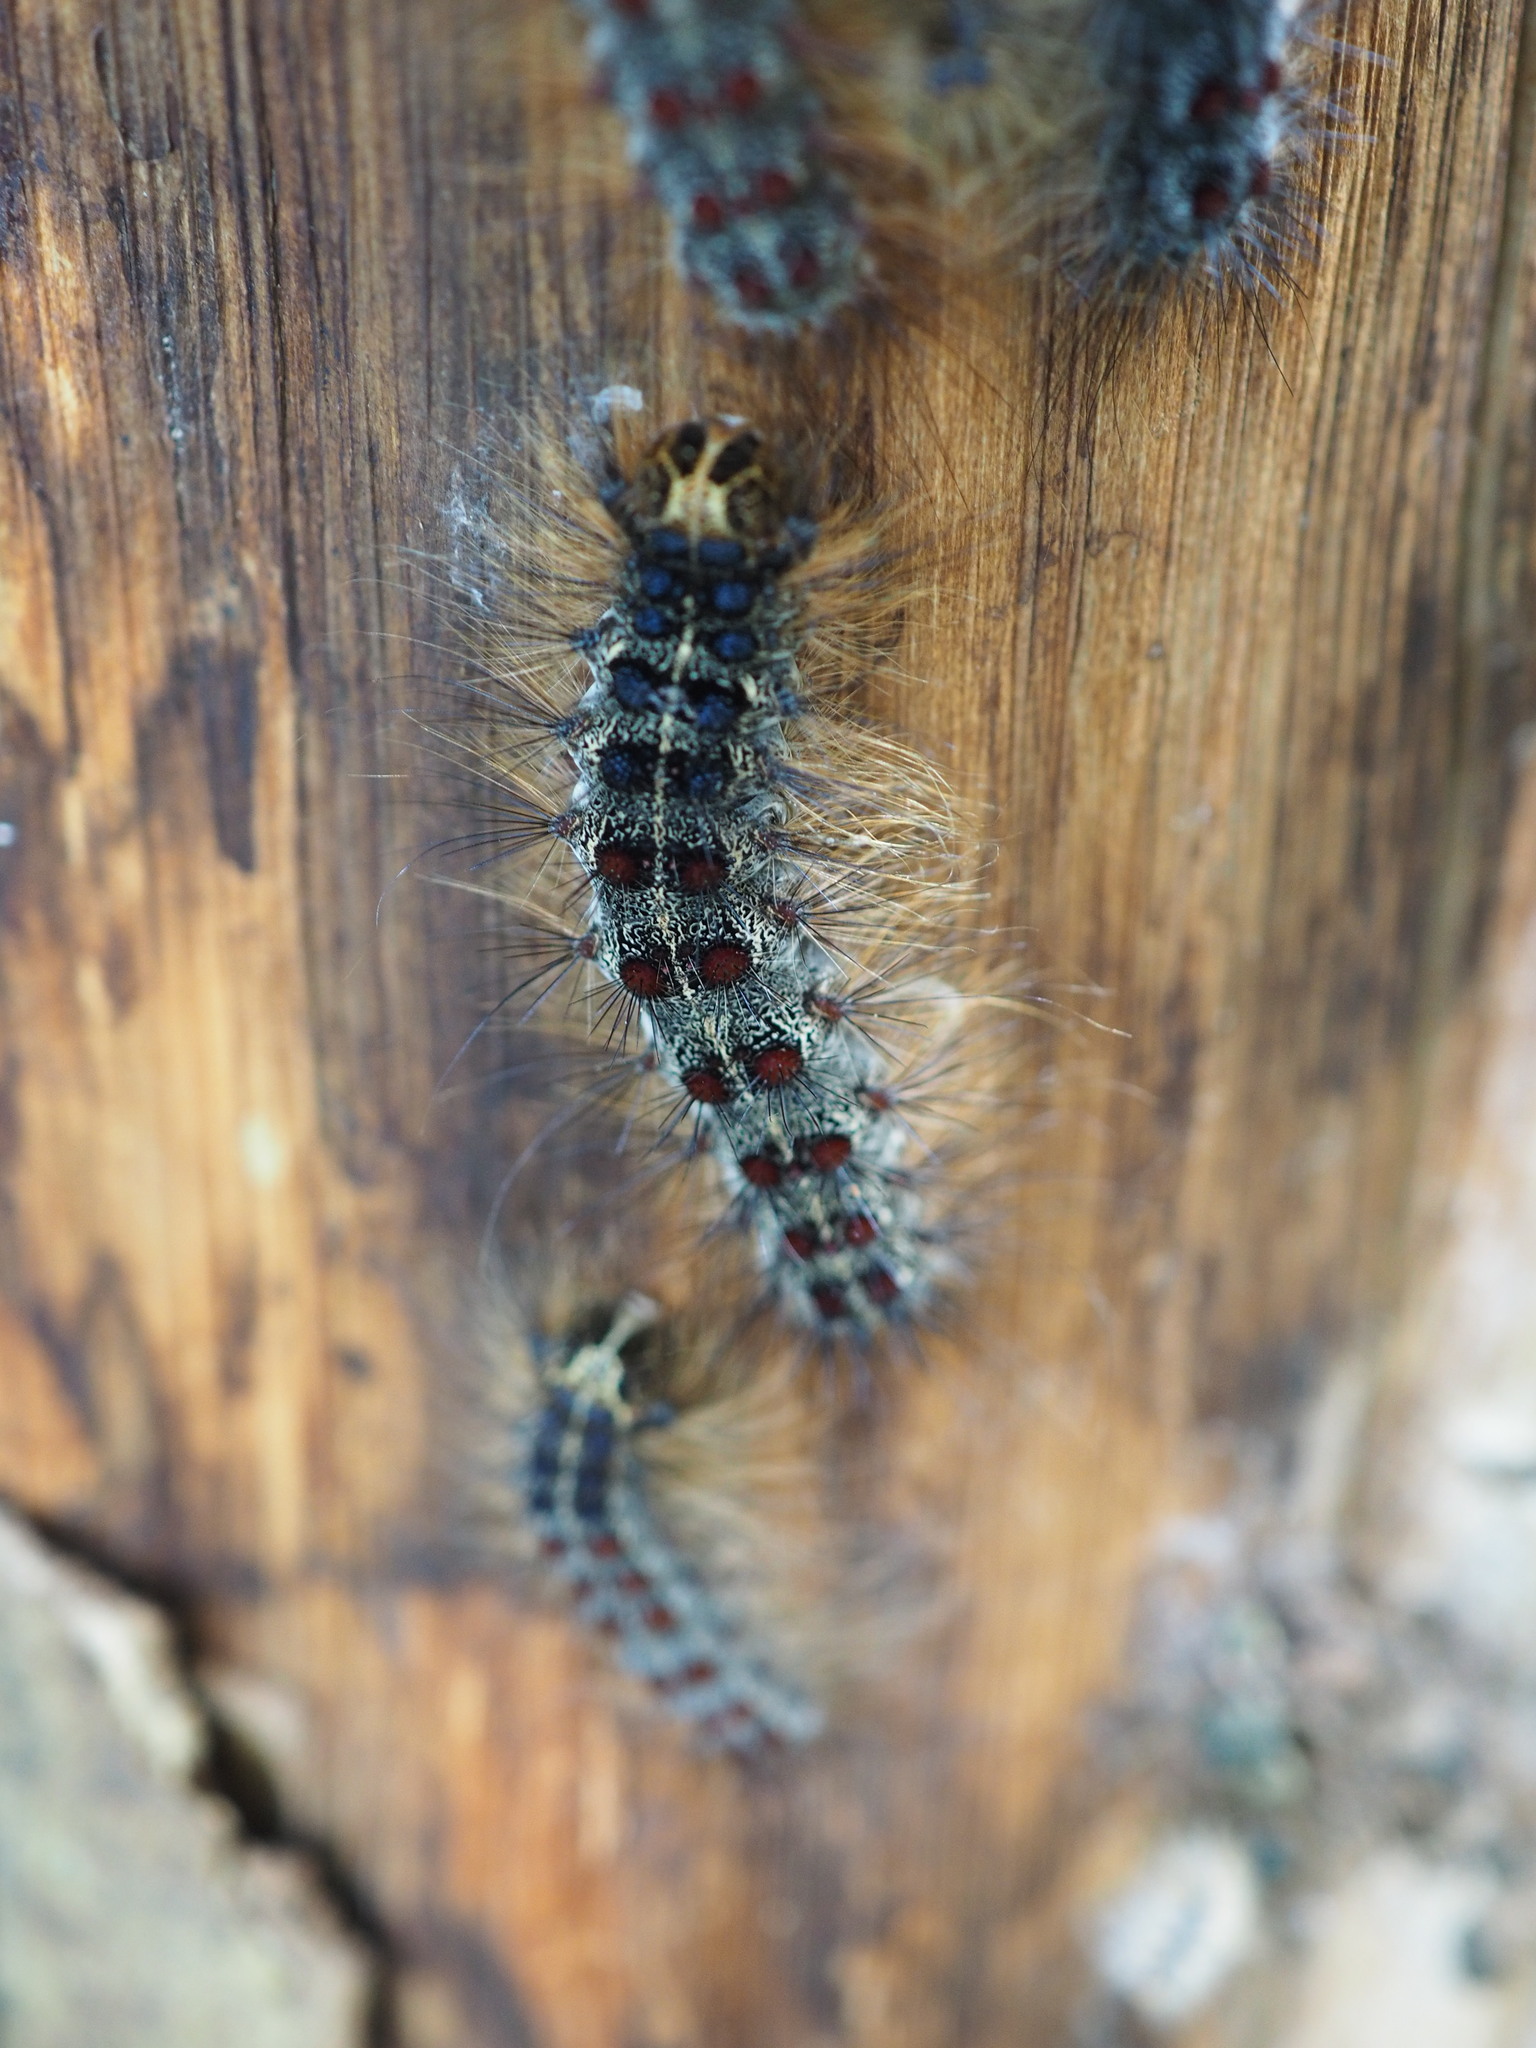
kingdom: Animalia
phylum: Arthropoda
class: Insecta
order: Lepidoptera
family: Erebidae
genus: Lymantria
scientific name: Lymantria dispar
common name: Gypsy moth
